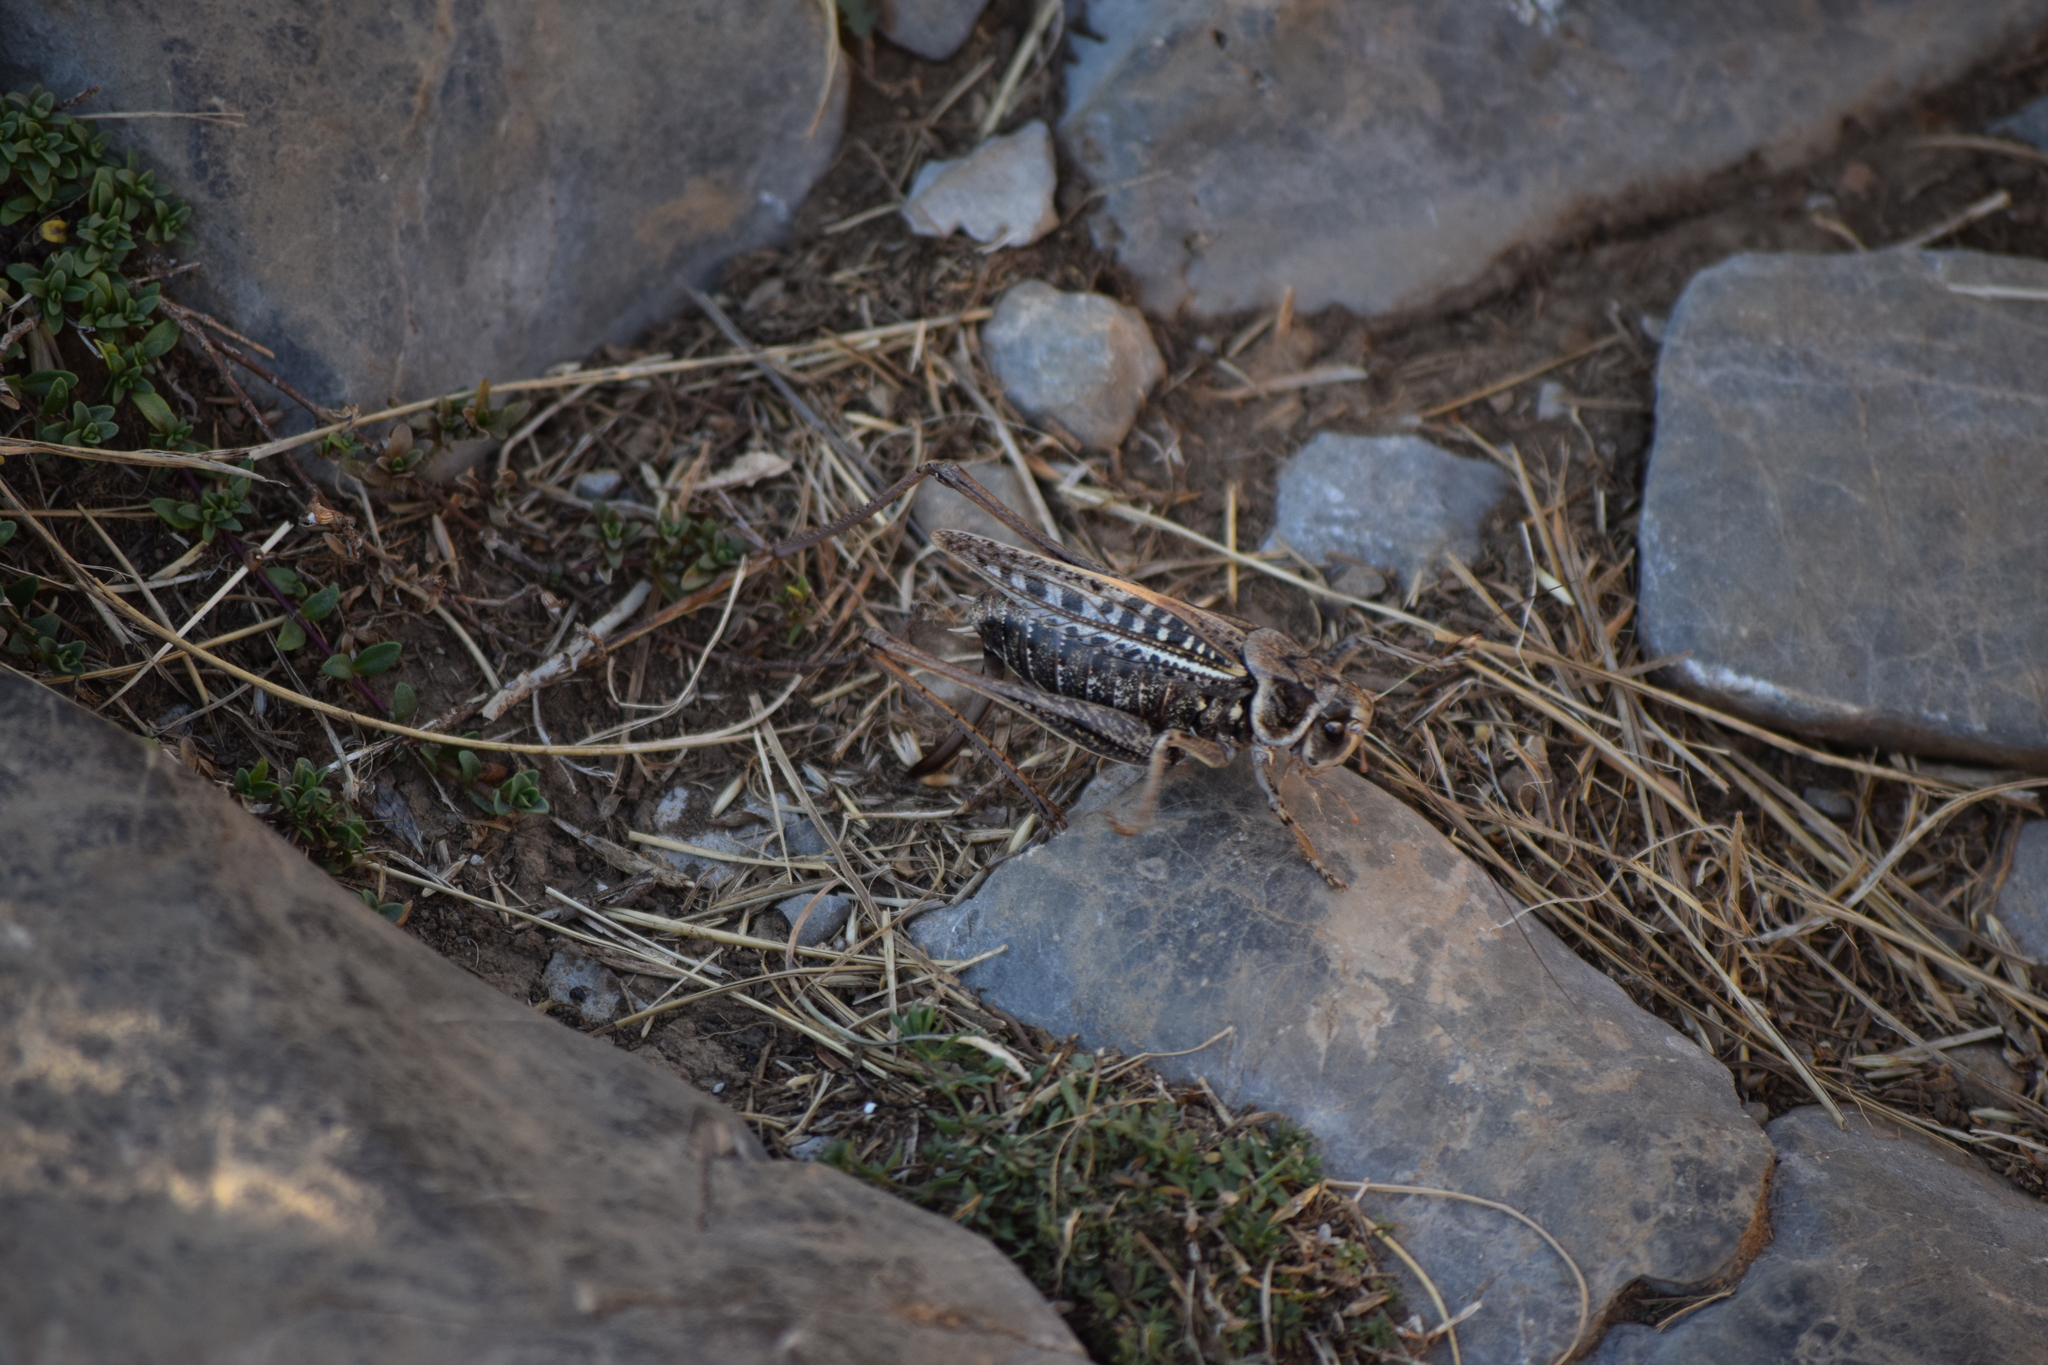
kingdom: Animalia
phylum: Arthropoda
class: Insecta
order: Orthoptera
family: Tettigoniidae
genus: Decticus
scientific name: Decticus verrucivorus
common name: Wart-biter
